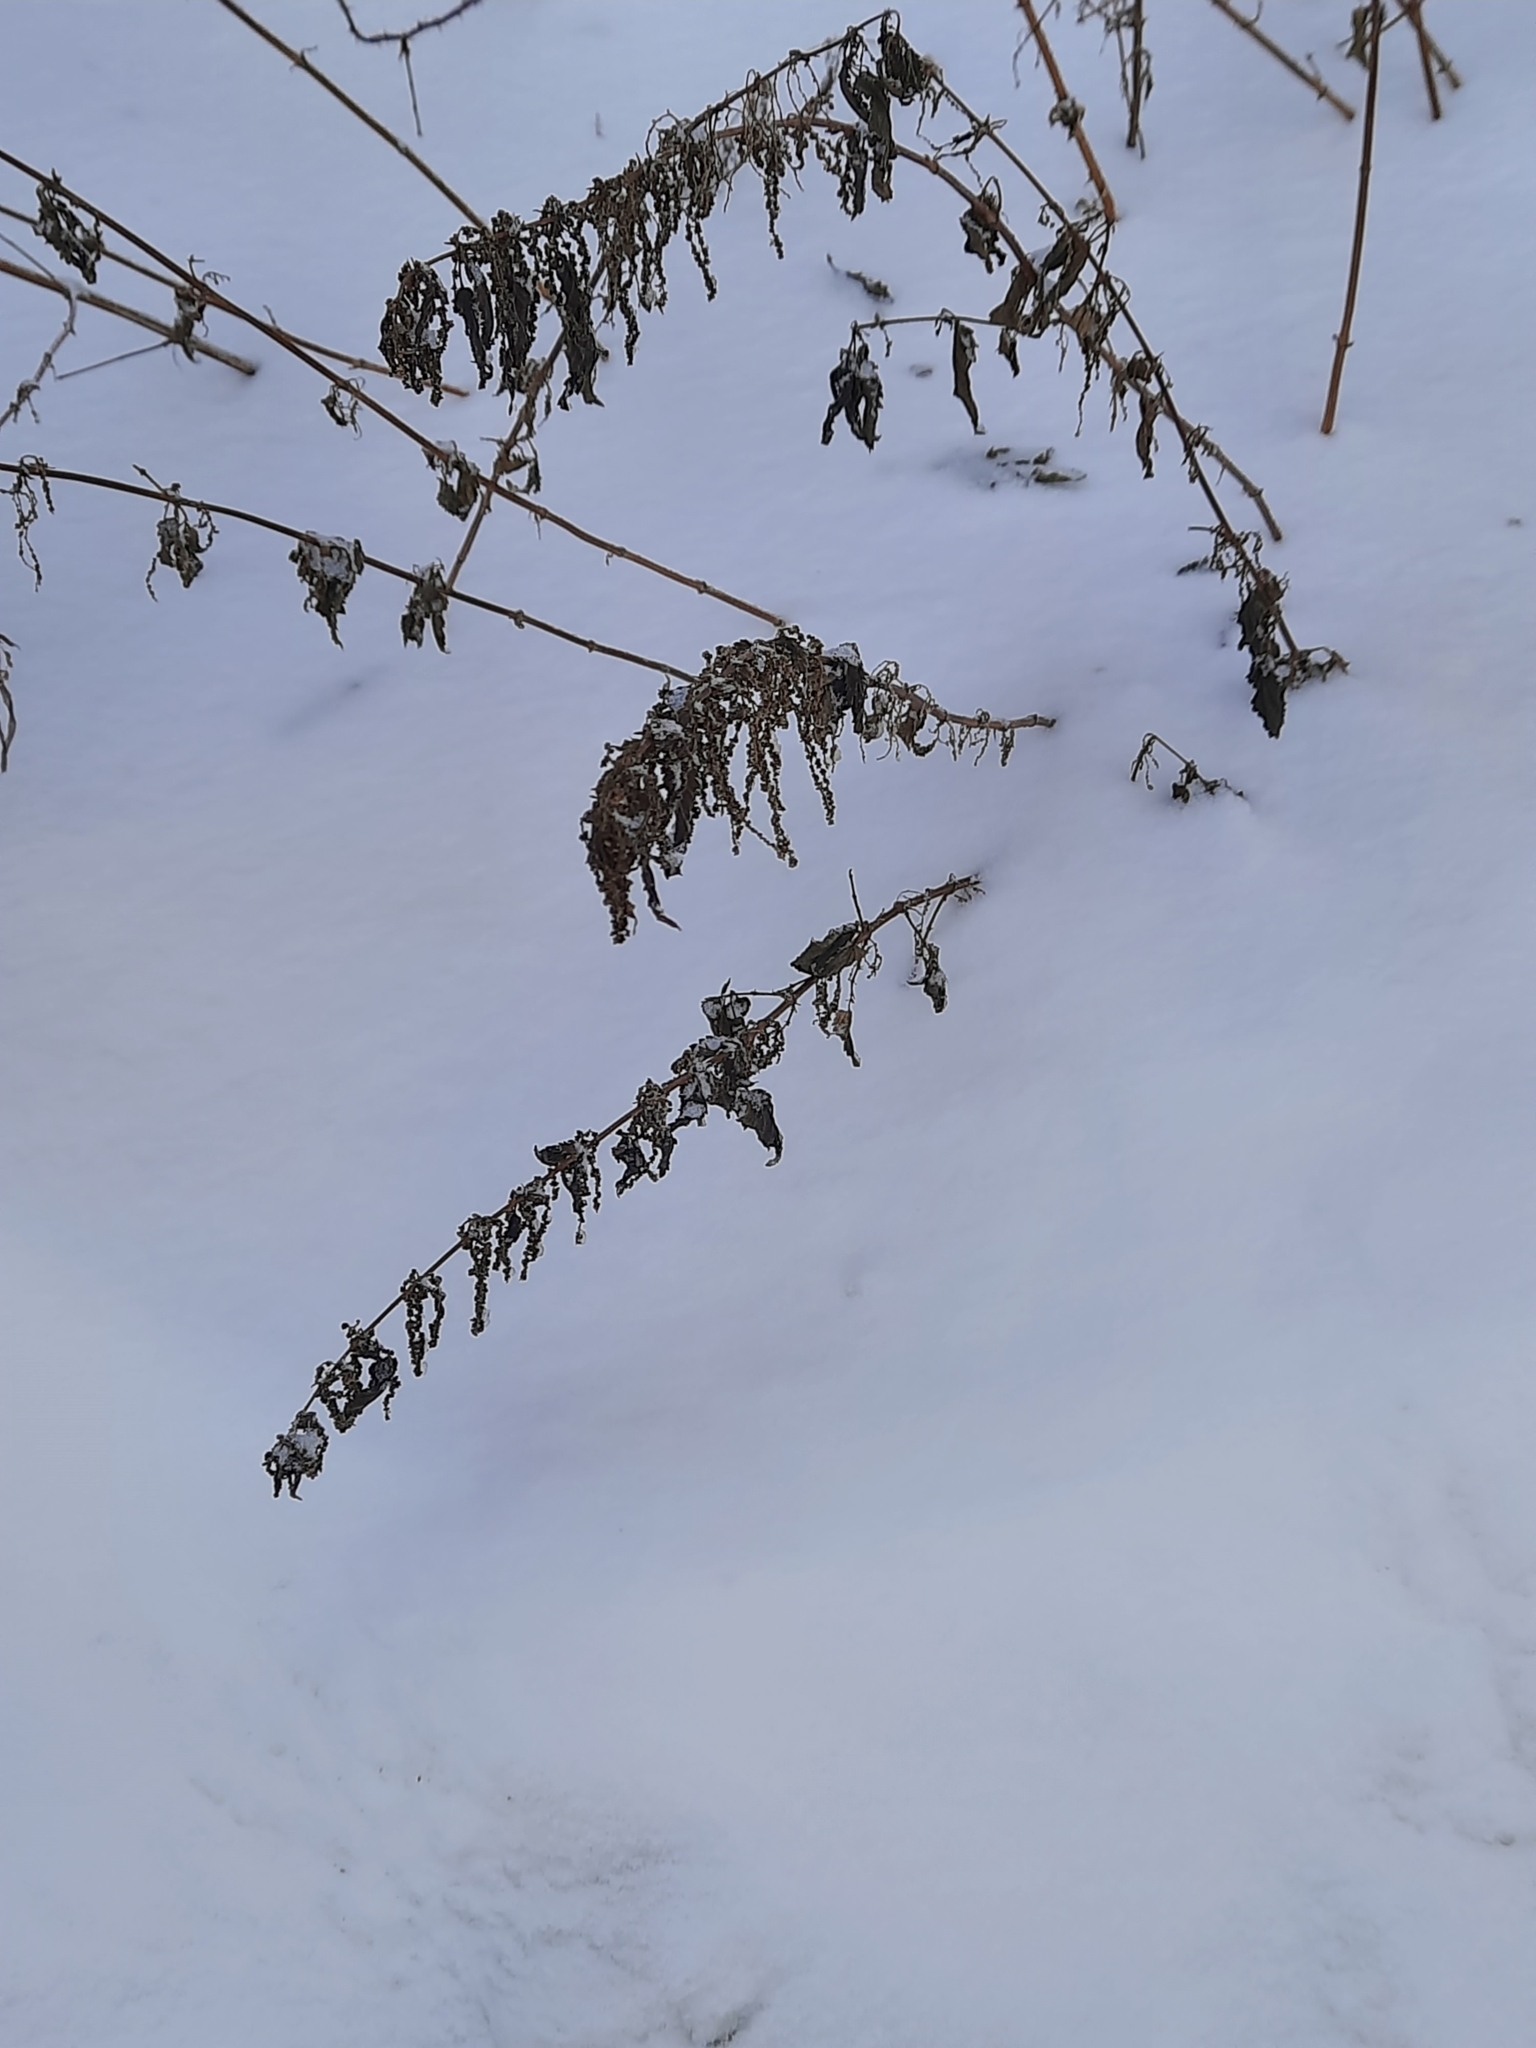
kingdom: Plantae
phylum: Tracheophyta
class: Magnoliopsida
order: Rosales
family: Urticaceae
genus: Urtica
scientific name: Urtica dioica
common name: Common nettle
